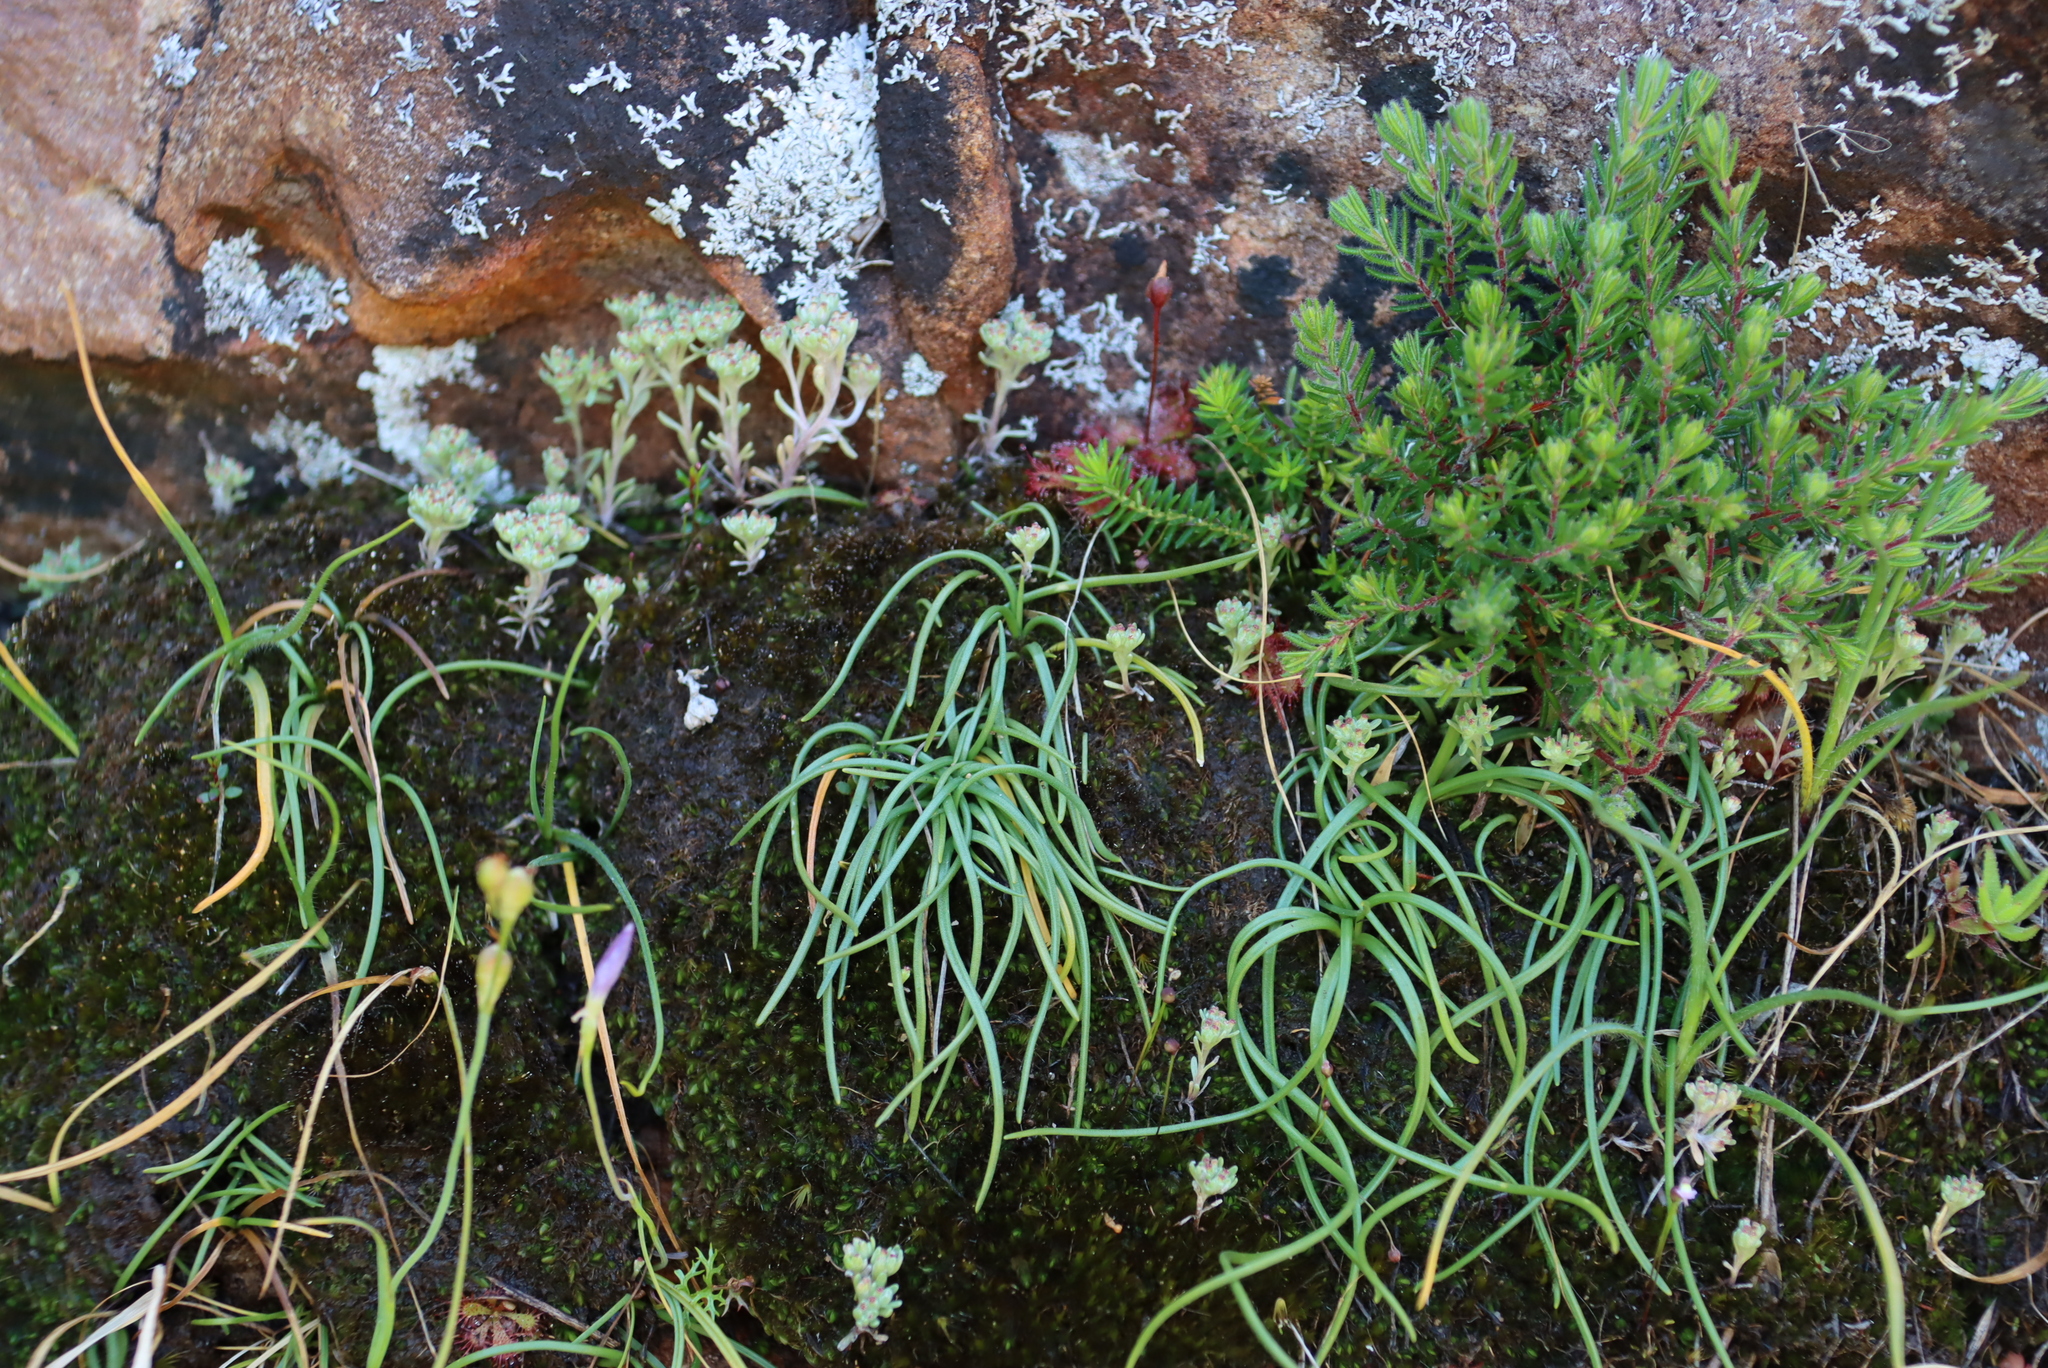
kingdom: Plantae
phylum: Tracheophyta
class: Liliopsida
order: Asparagales
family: Asparagaceae
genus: Ornithogalum
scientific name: Ornithogalum niveum
